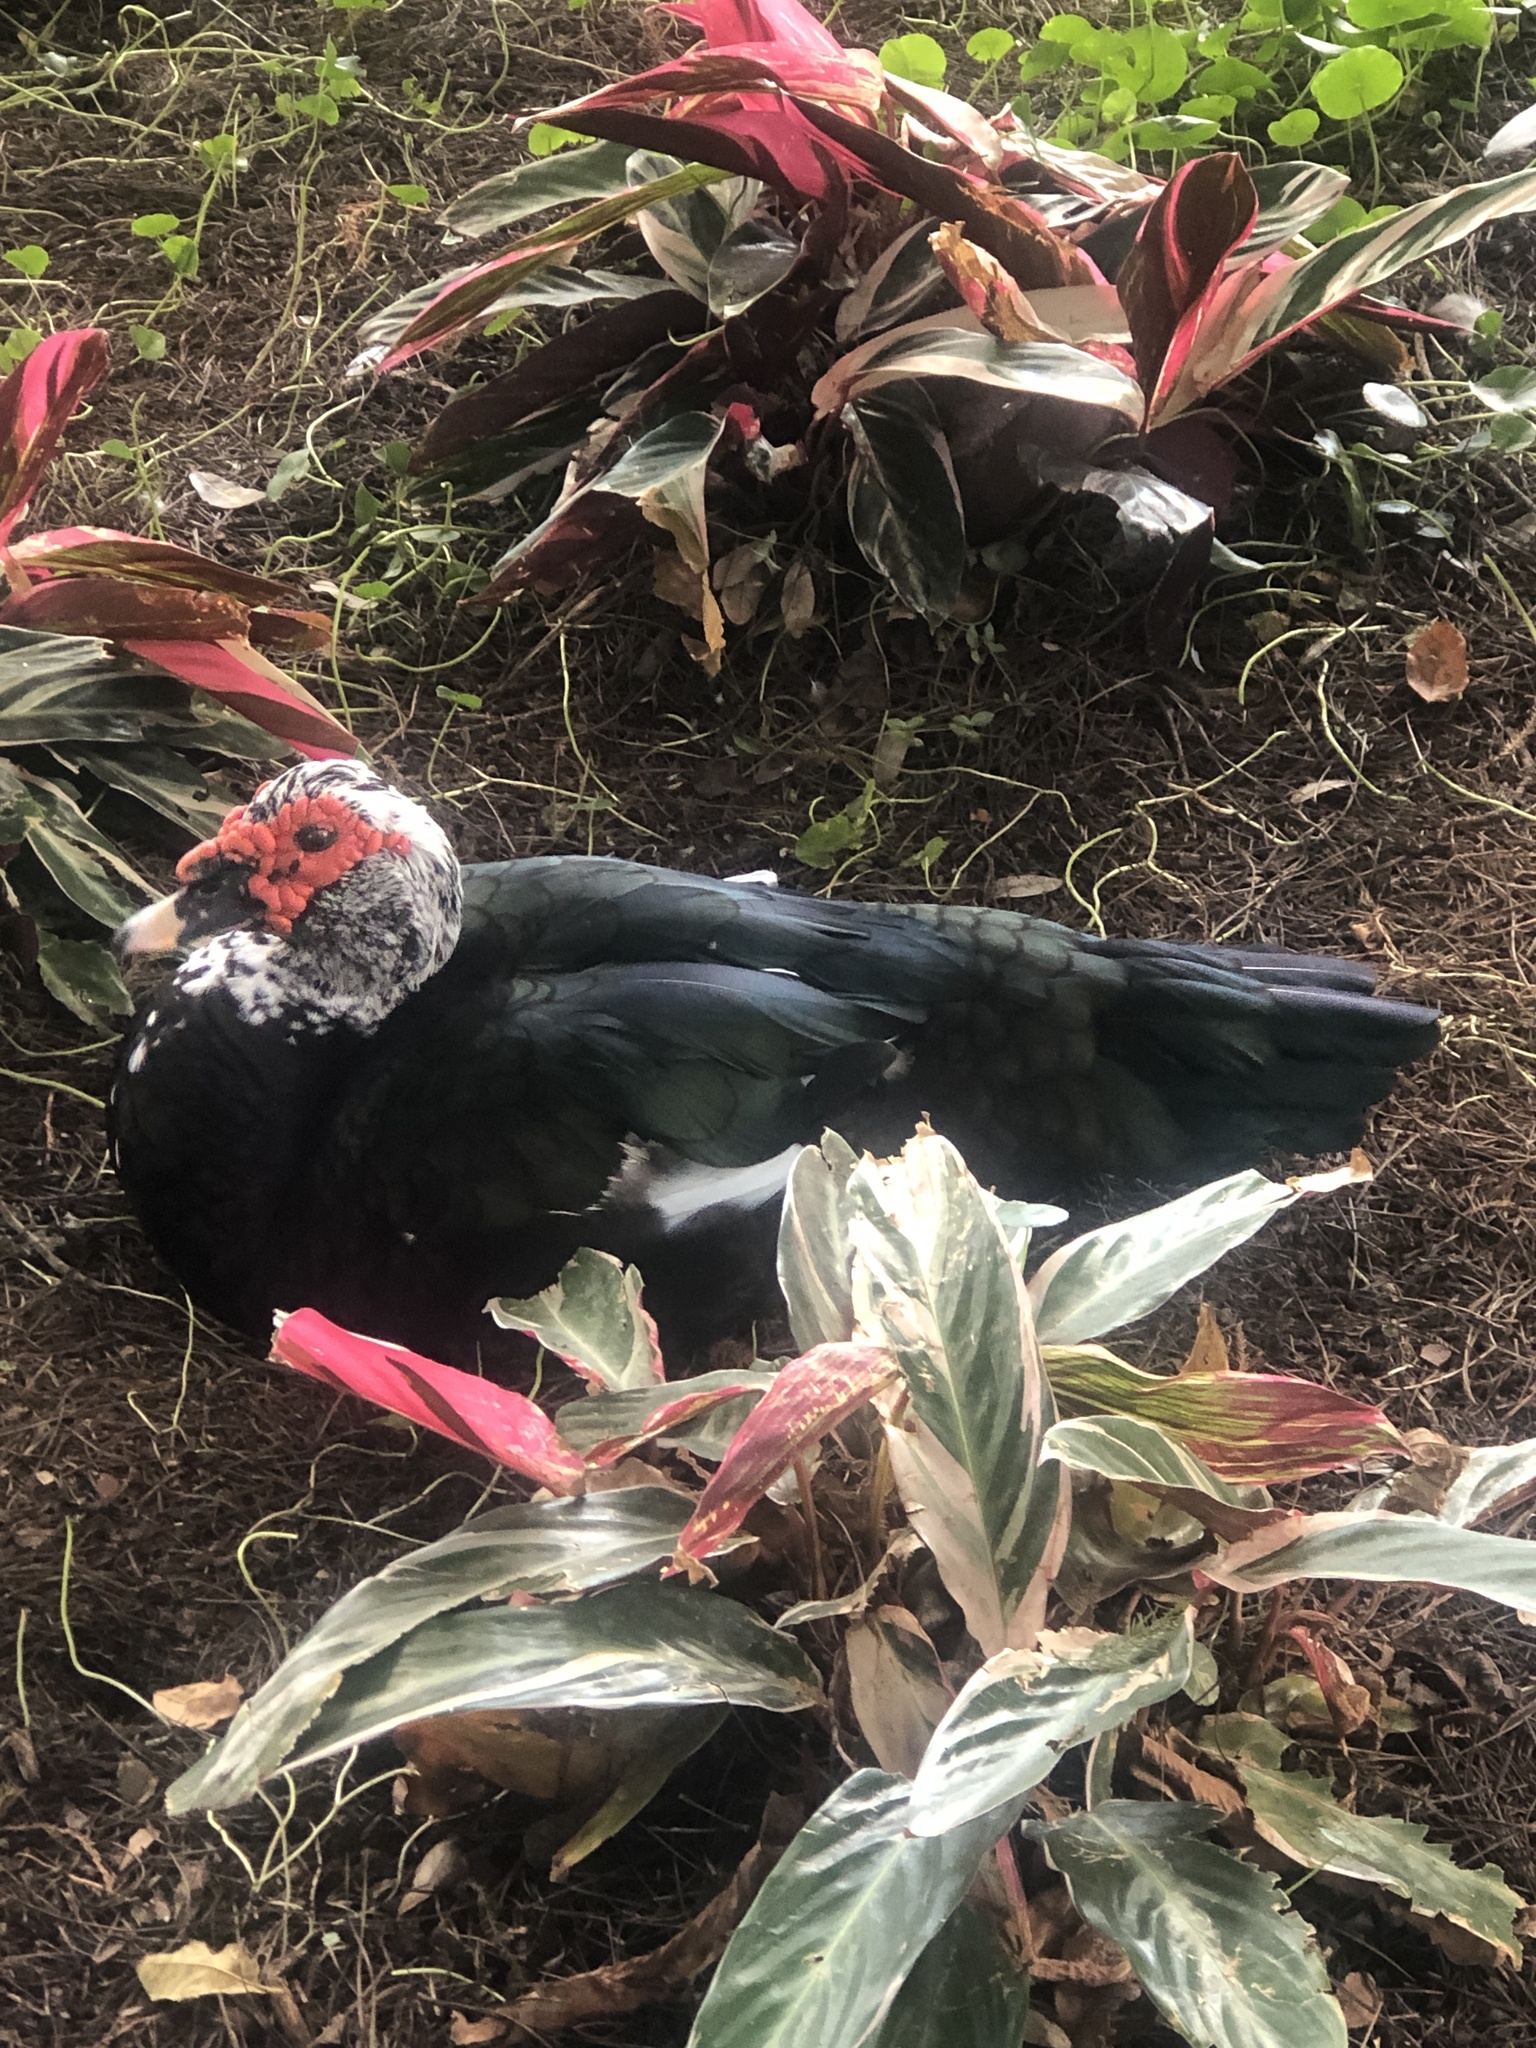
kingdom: Animalia
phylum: Chordata
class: Aves
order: Anseriformes
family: Anatidae
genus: Cairina
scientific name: Cairina moschata
